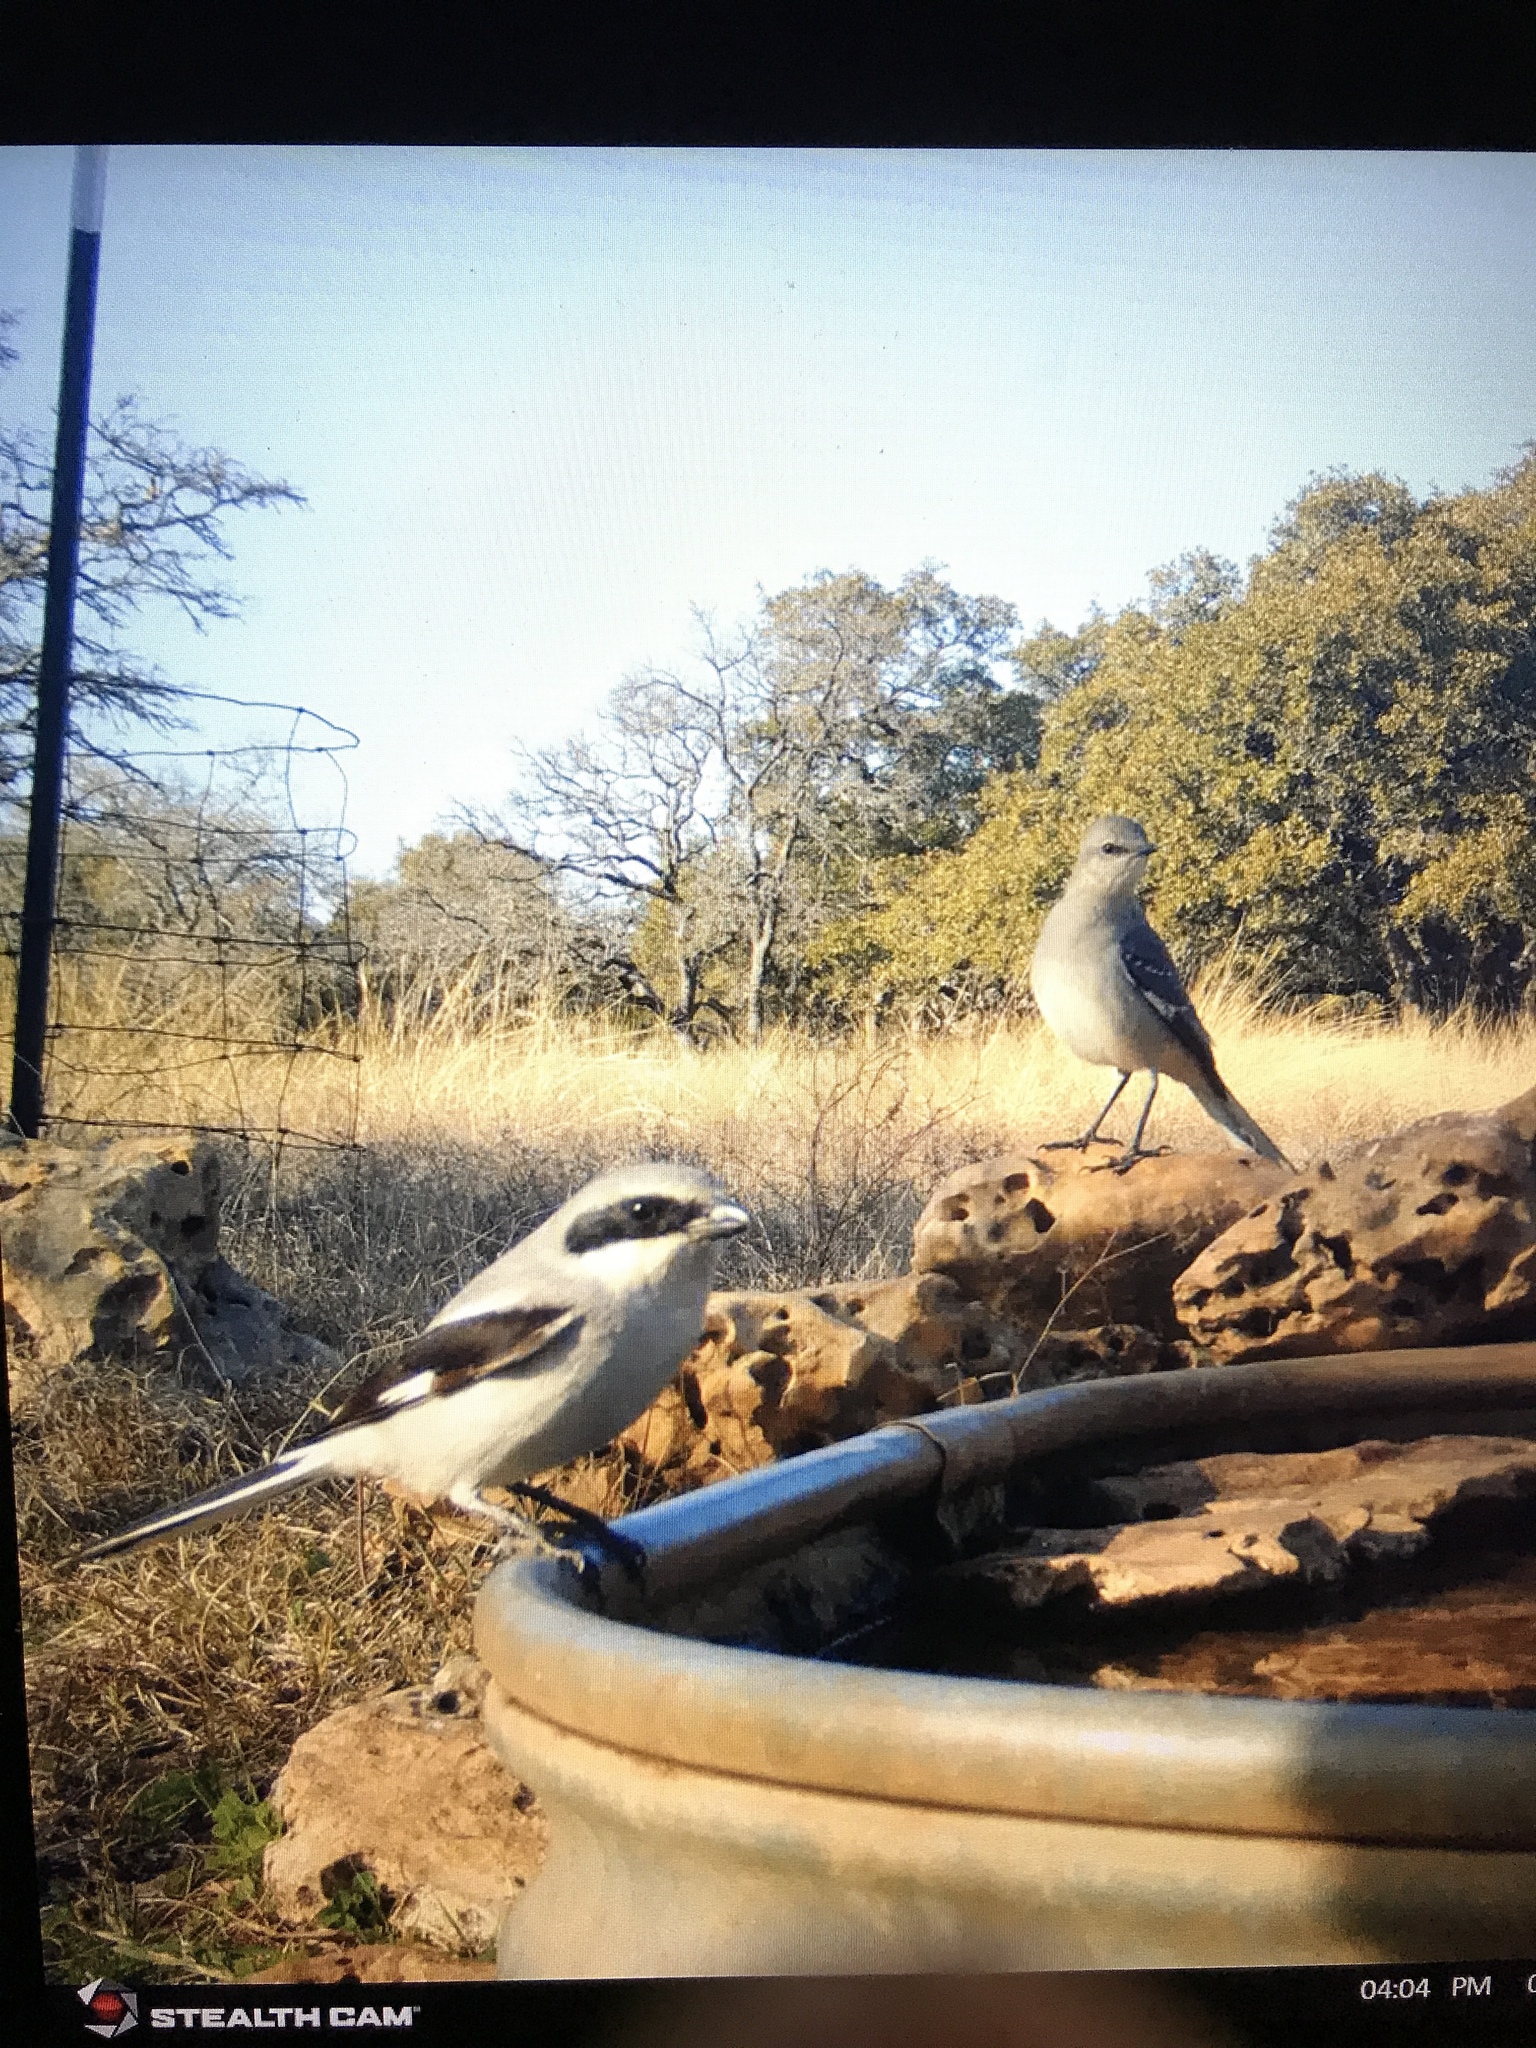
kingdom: Animalia
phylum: Chordata
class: Aves
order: Passeriformes
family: Laniidae
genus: Lanius
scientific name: Lanius ludovicianus
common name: Loggerhead shrike
